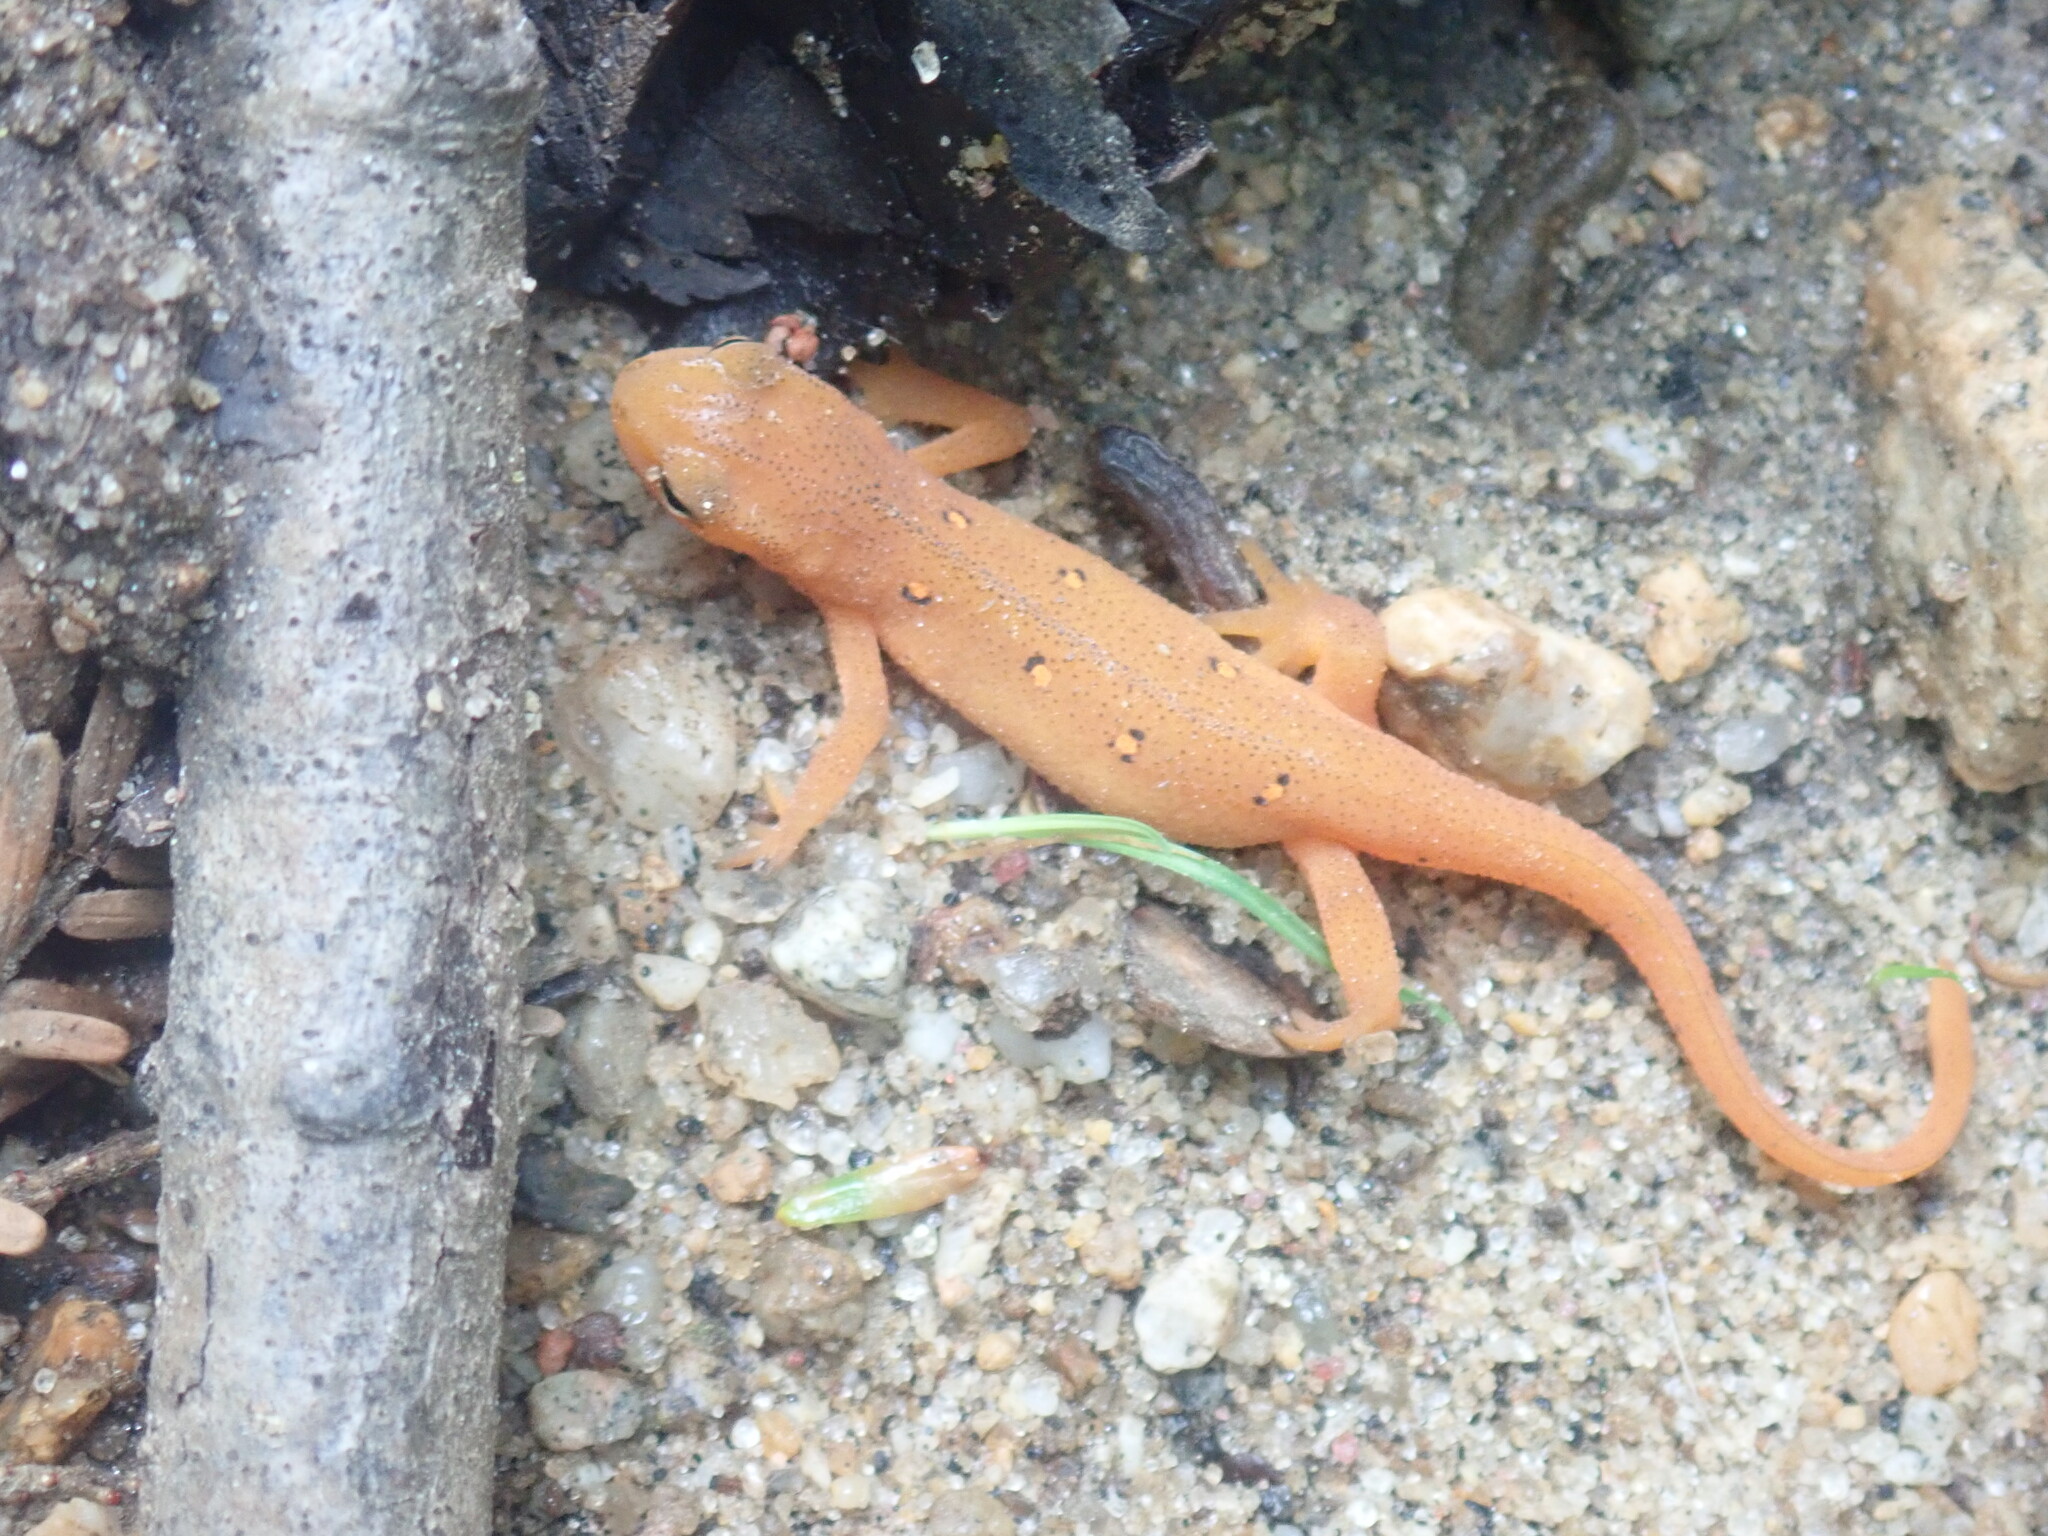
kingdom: Animalia
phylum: Chordata
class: Amphibia
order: Caudata
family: Salamandridae
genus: Notophthalmus
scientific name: Notophthalmus viridescens
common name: Eastern newt
